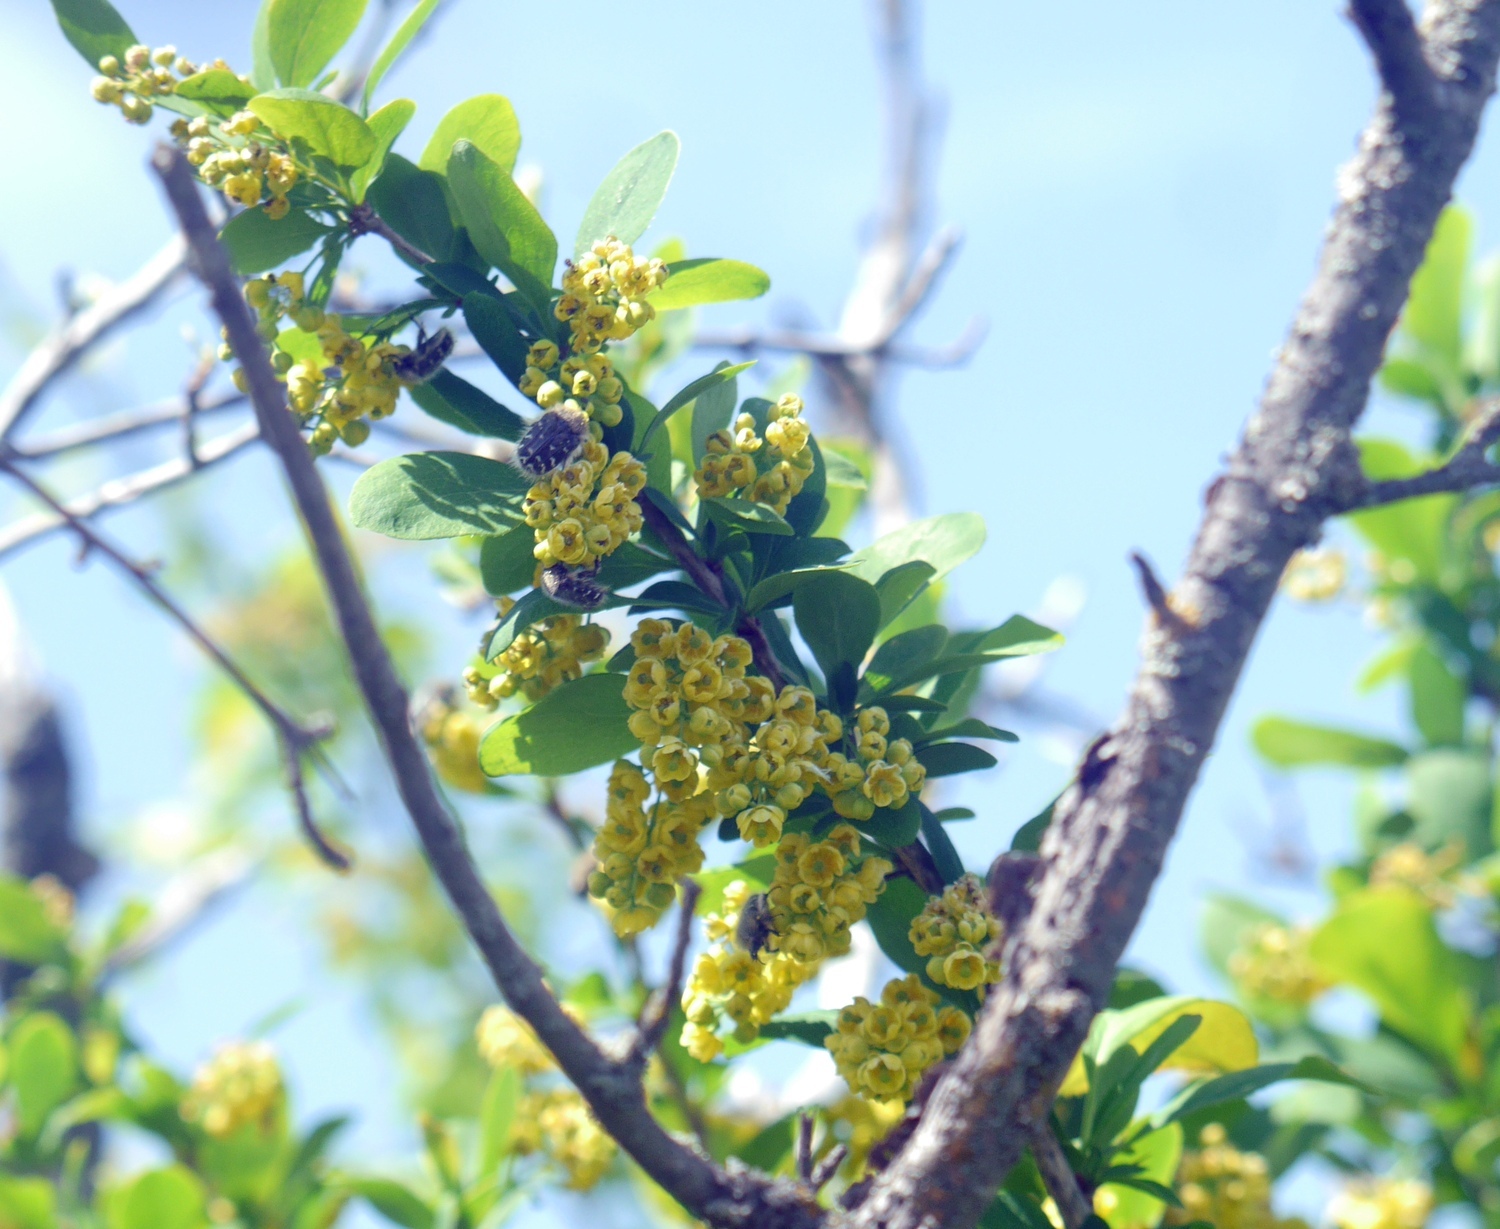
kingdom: Plantae
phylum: Tracheophyta
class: Magnoliopsida
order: Ranunculales
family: Berberidaceae
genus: Berberis
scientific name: Berberis vulgaris
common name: Barberry
